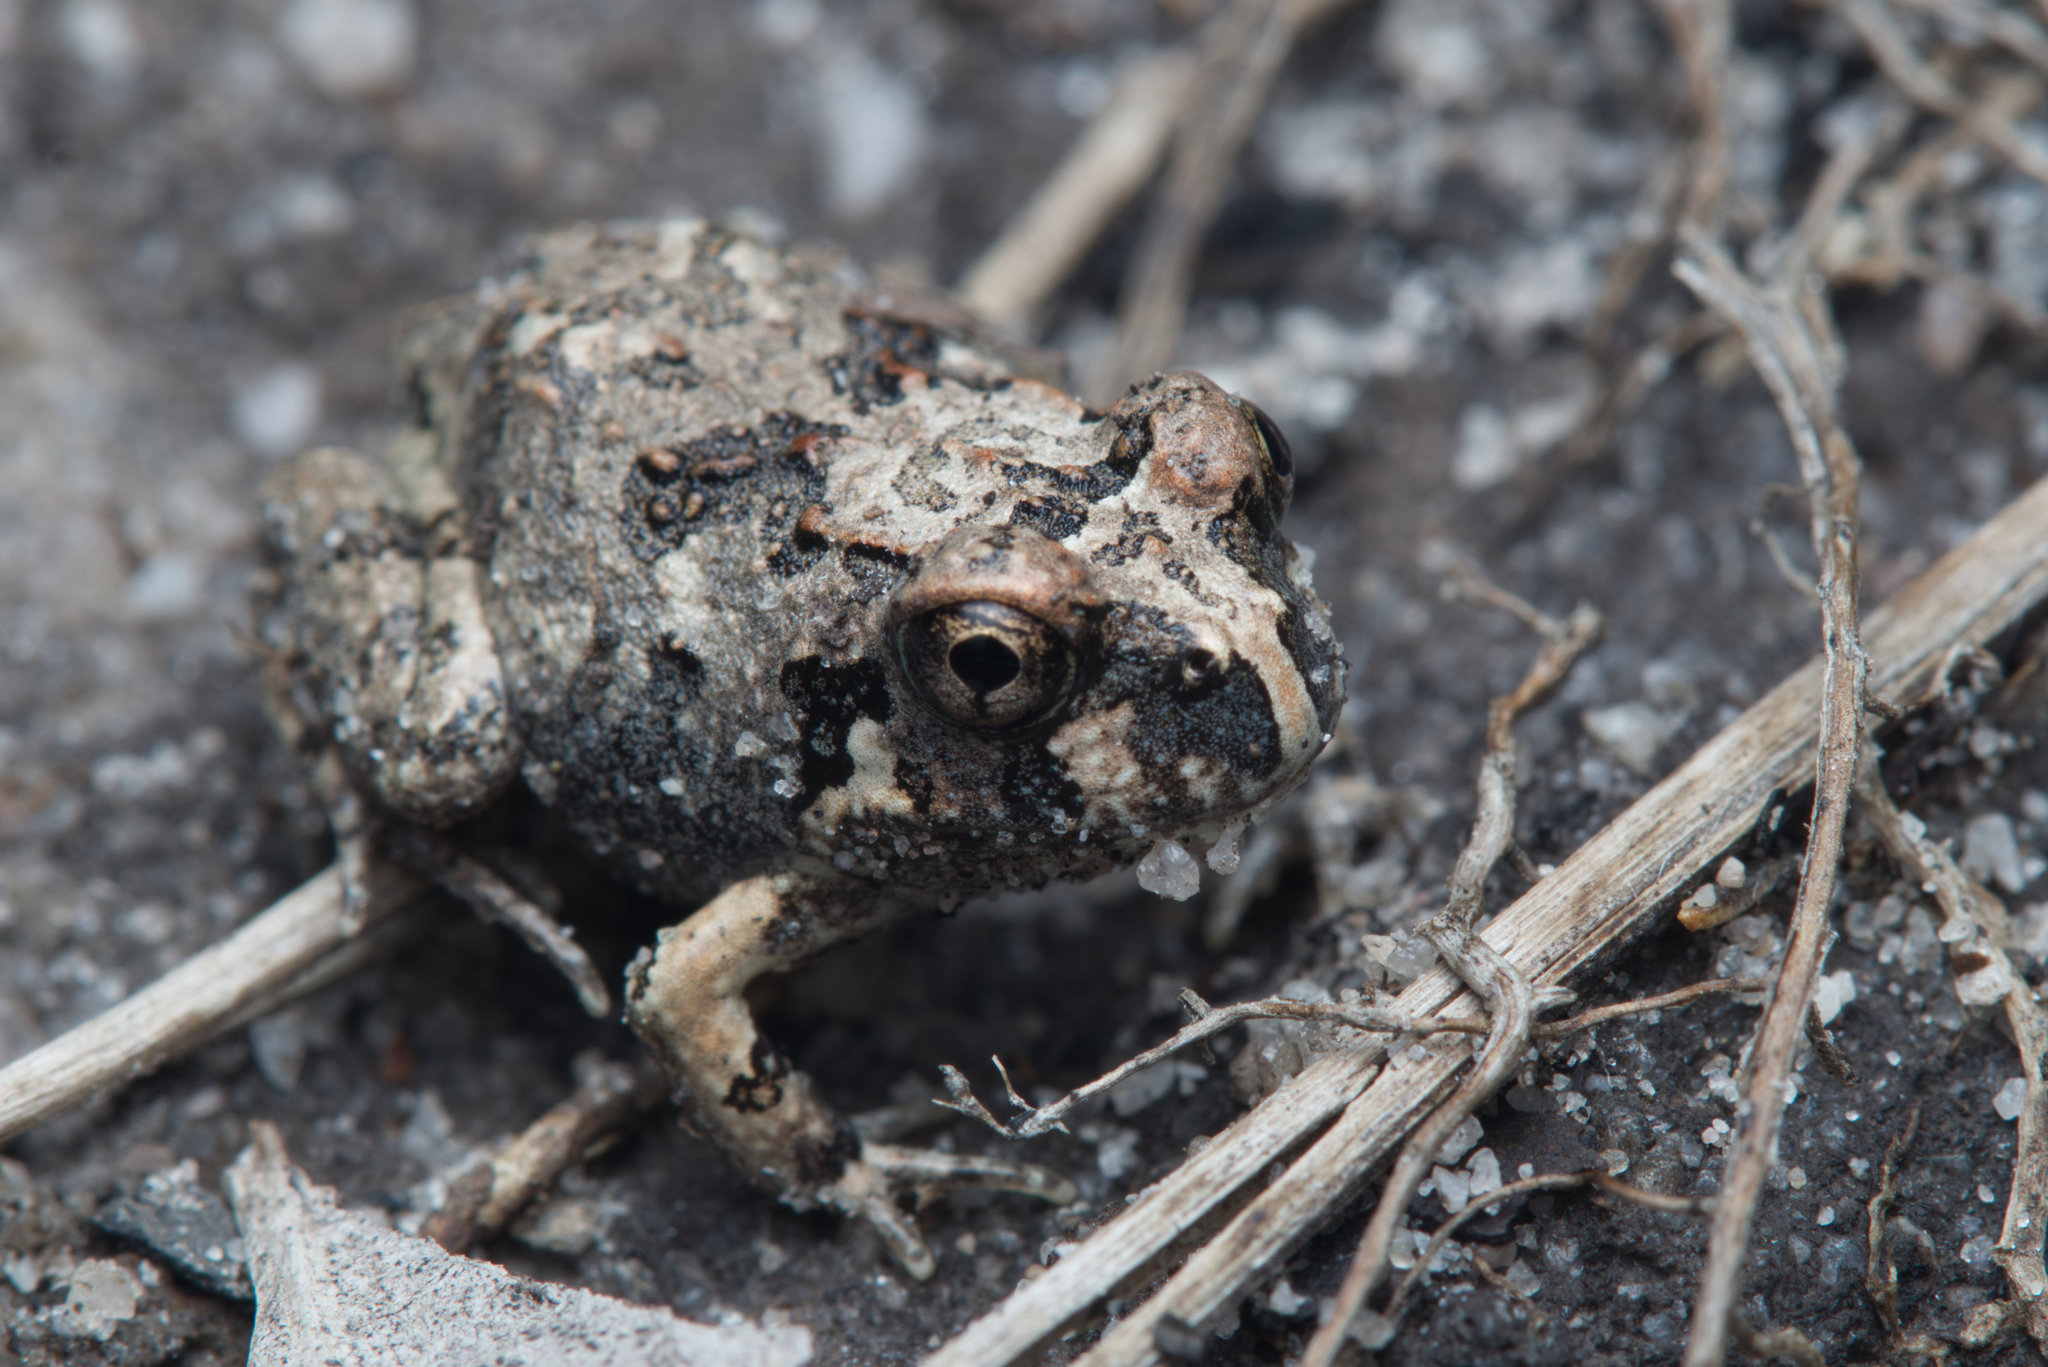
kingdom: Animalia
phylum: Chordata
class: Amphibia
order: Anura
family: Limnodynastidae
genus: Platyplectrum
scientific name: Platyplectrum ornatum
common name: Ornate burrowing frog
